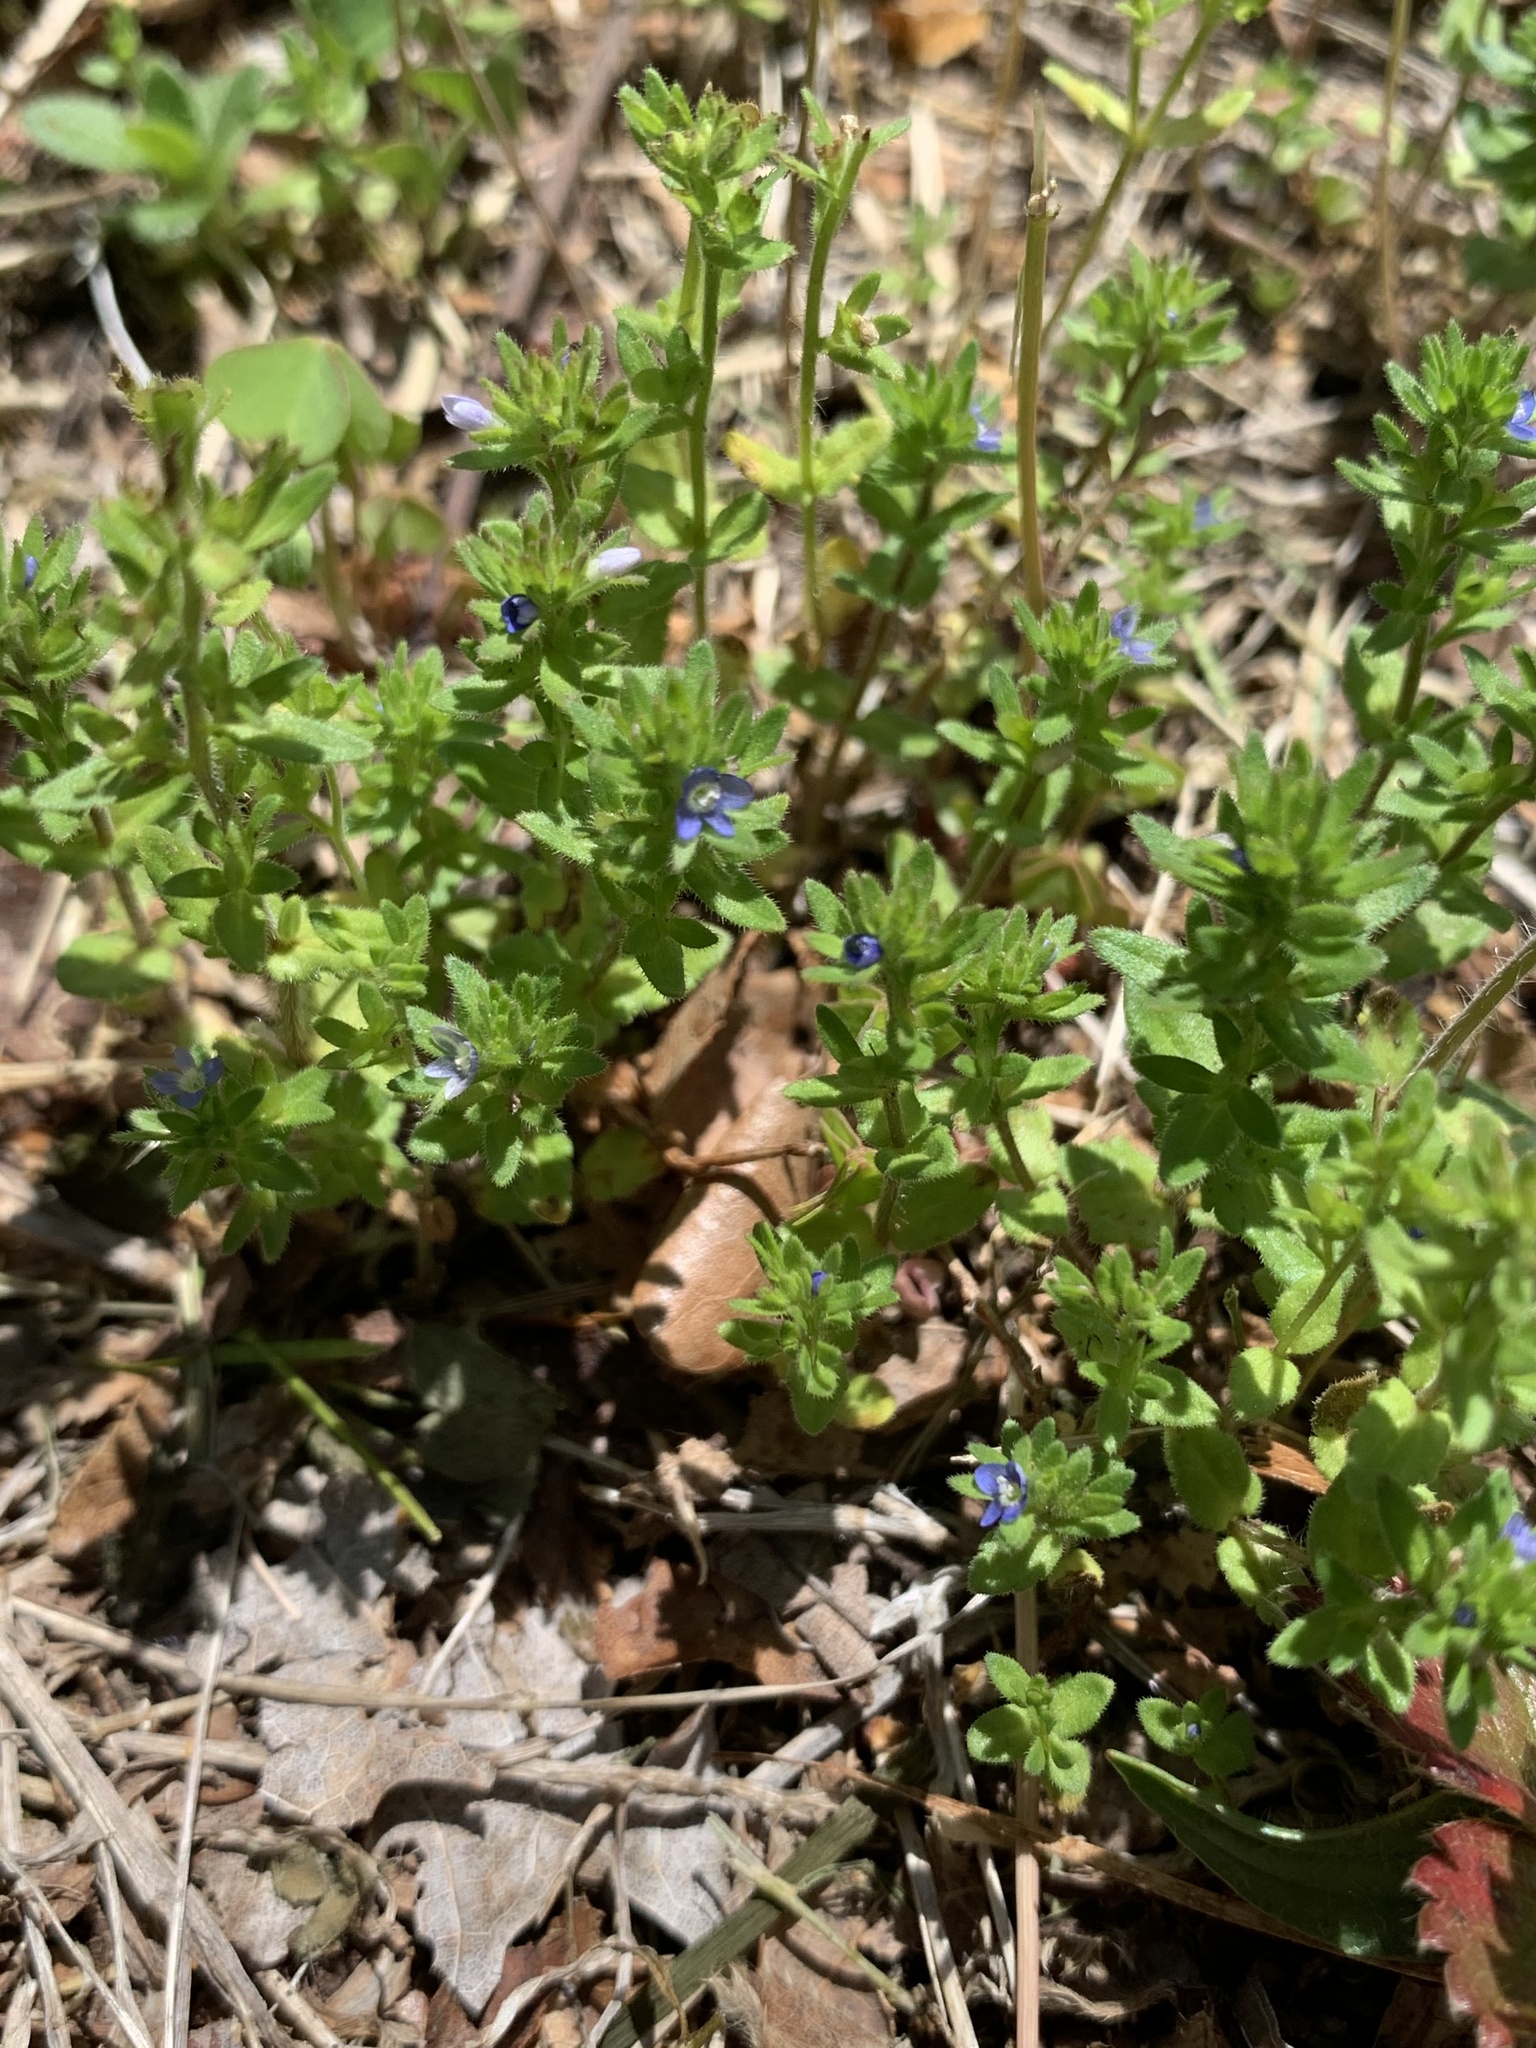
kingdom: Plantae
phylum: Tracheophyta
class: Magnoliopsida
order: Lamiales
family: Plantaginaceae
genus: Veronica
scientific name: Veronica arvensis
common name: Corn speedwell
